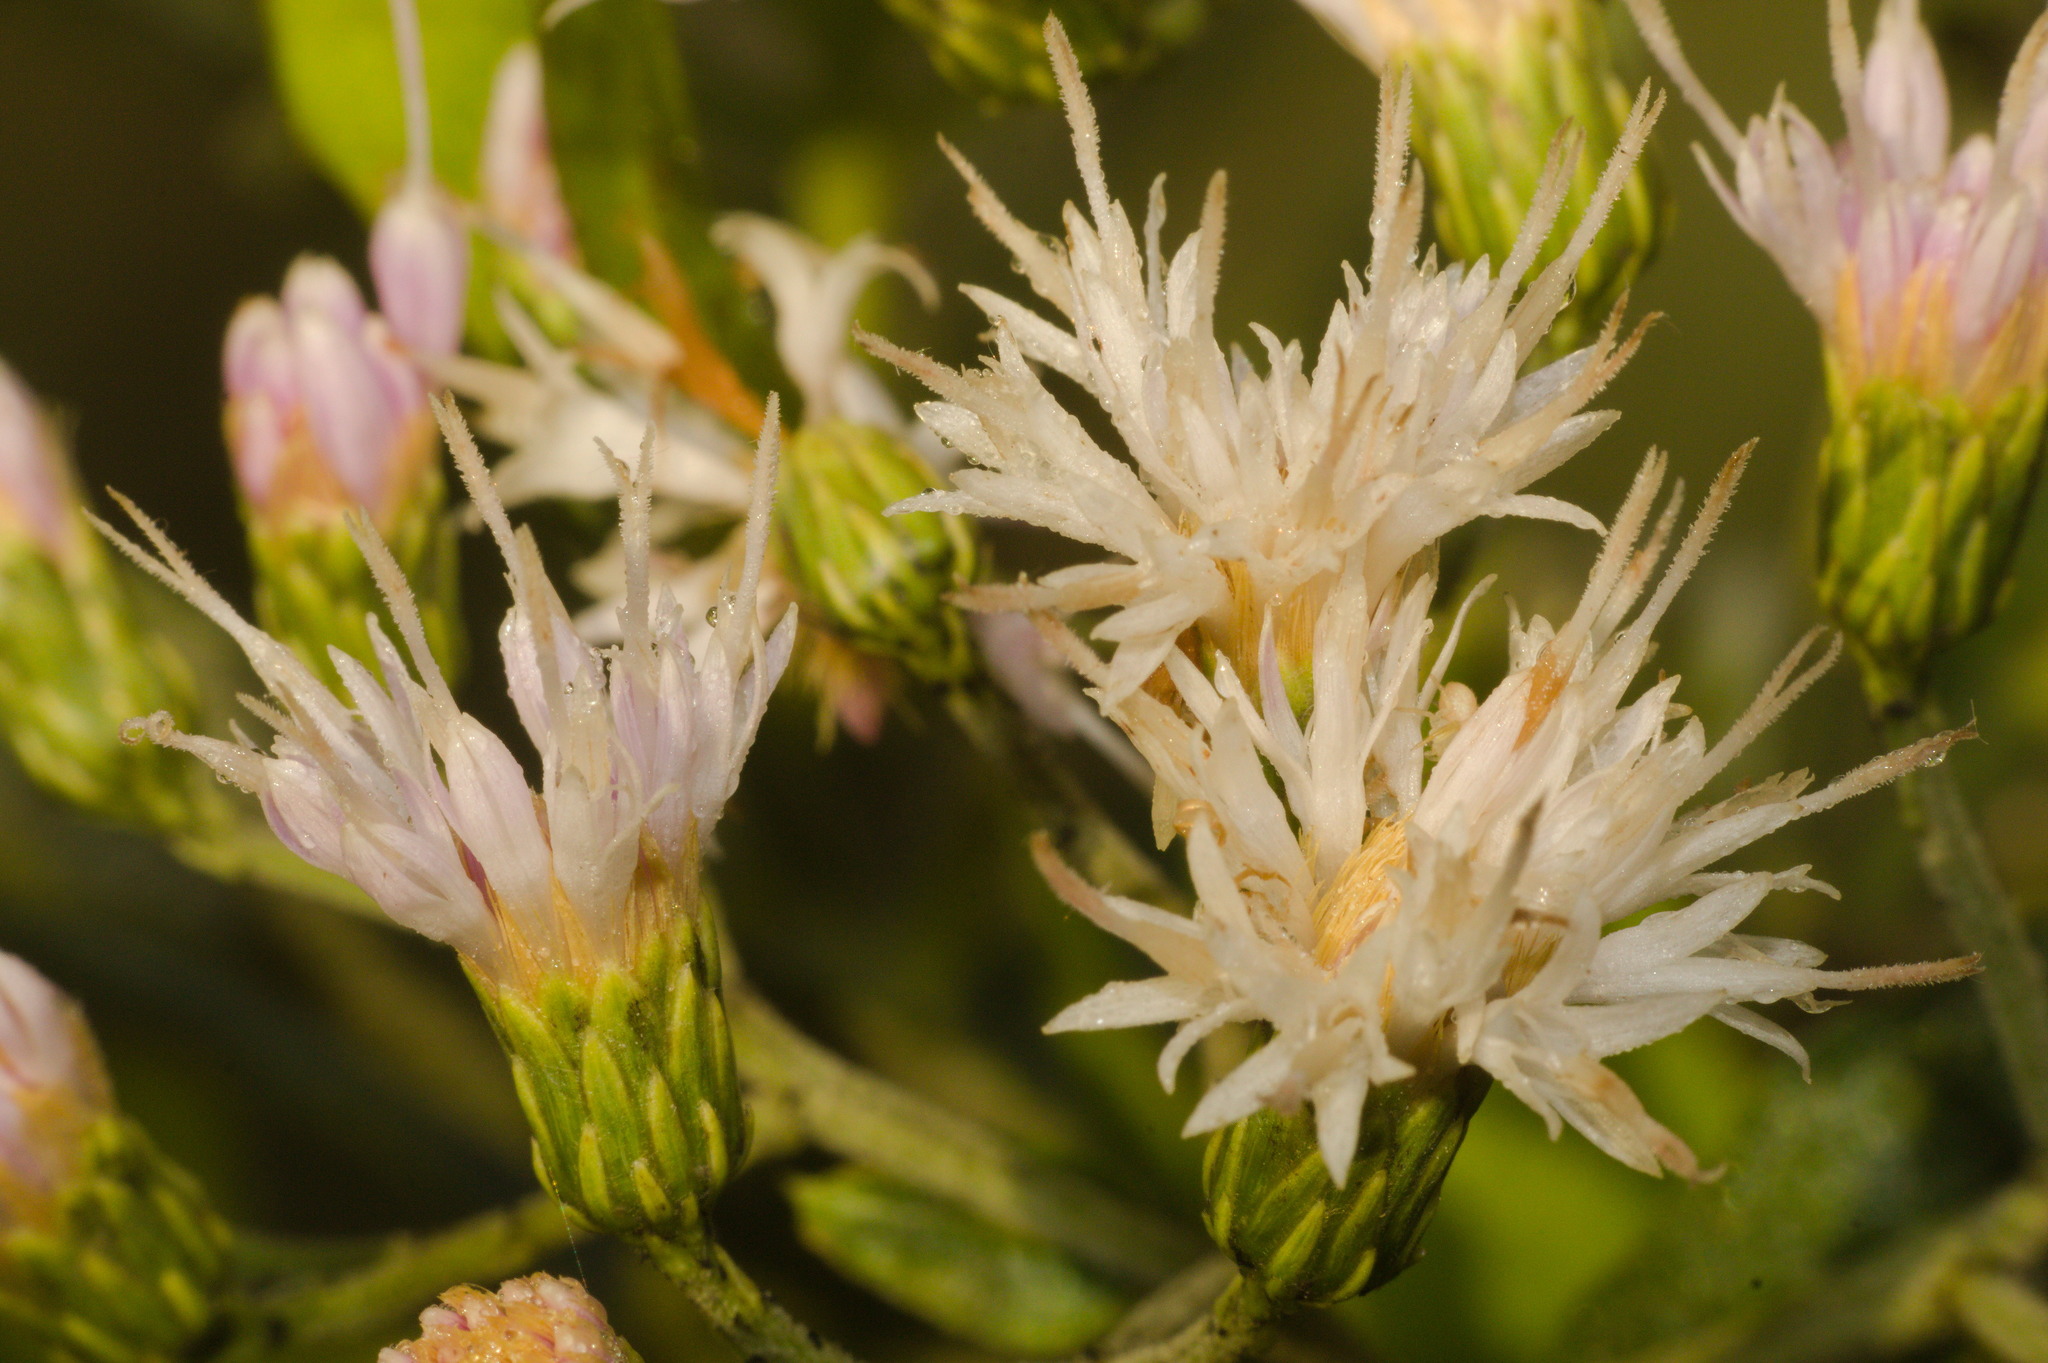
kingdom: Plantae
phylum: Tracheophyta
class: Magnoliopsida
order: Asterales
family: Asteraceae
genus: Vernonanthura
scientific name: Vernonanthura tweedieana
